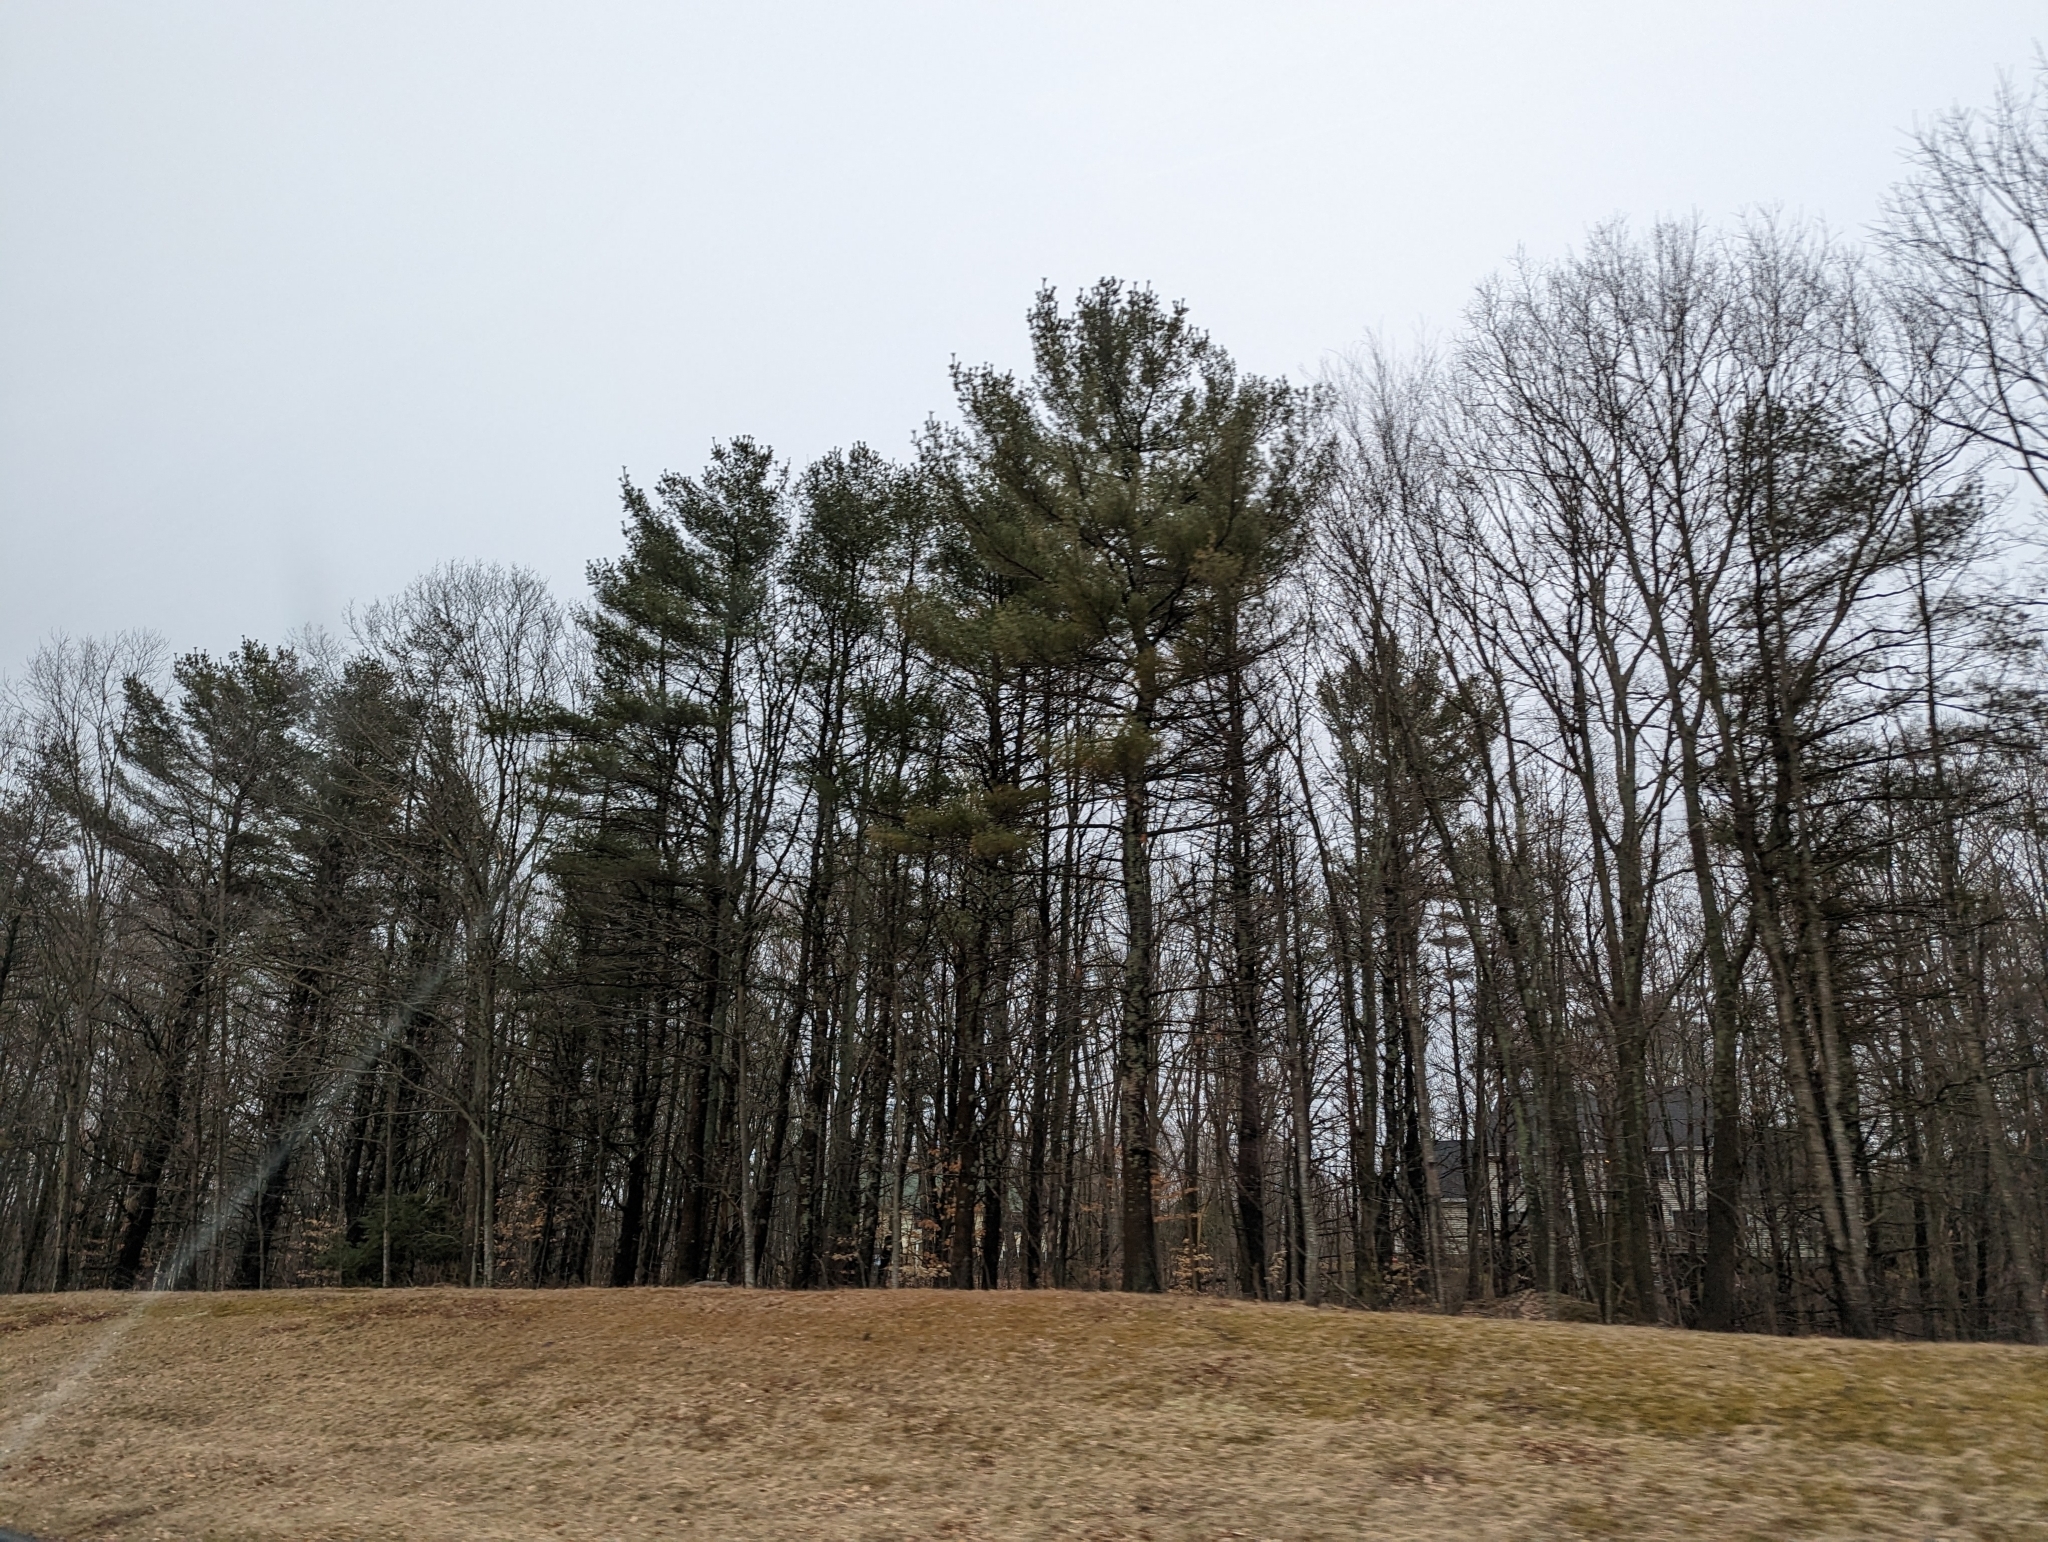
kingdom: Plantae
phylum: Tracheophyta
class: Pinopsida
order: Pinales
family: Pinaceae
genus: Pinus
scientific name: Pinus strobus
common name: Weymouth pine
